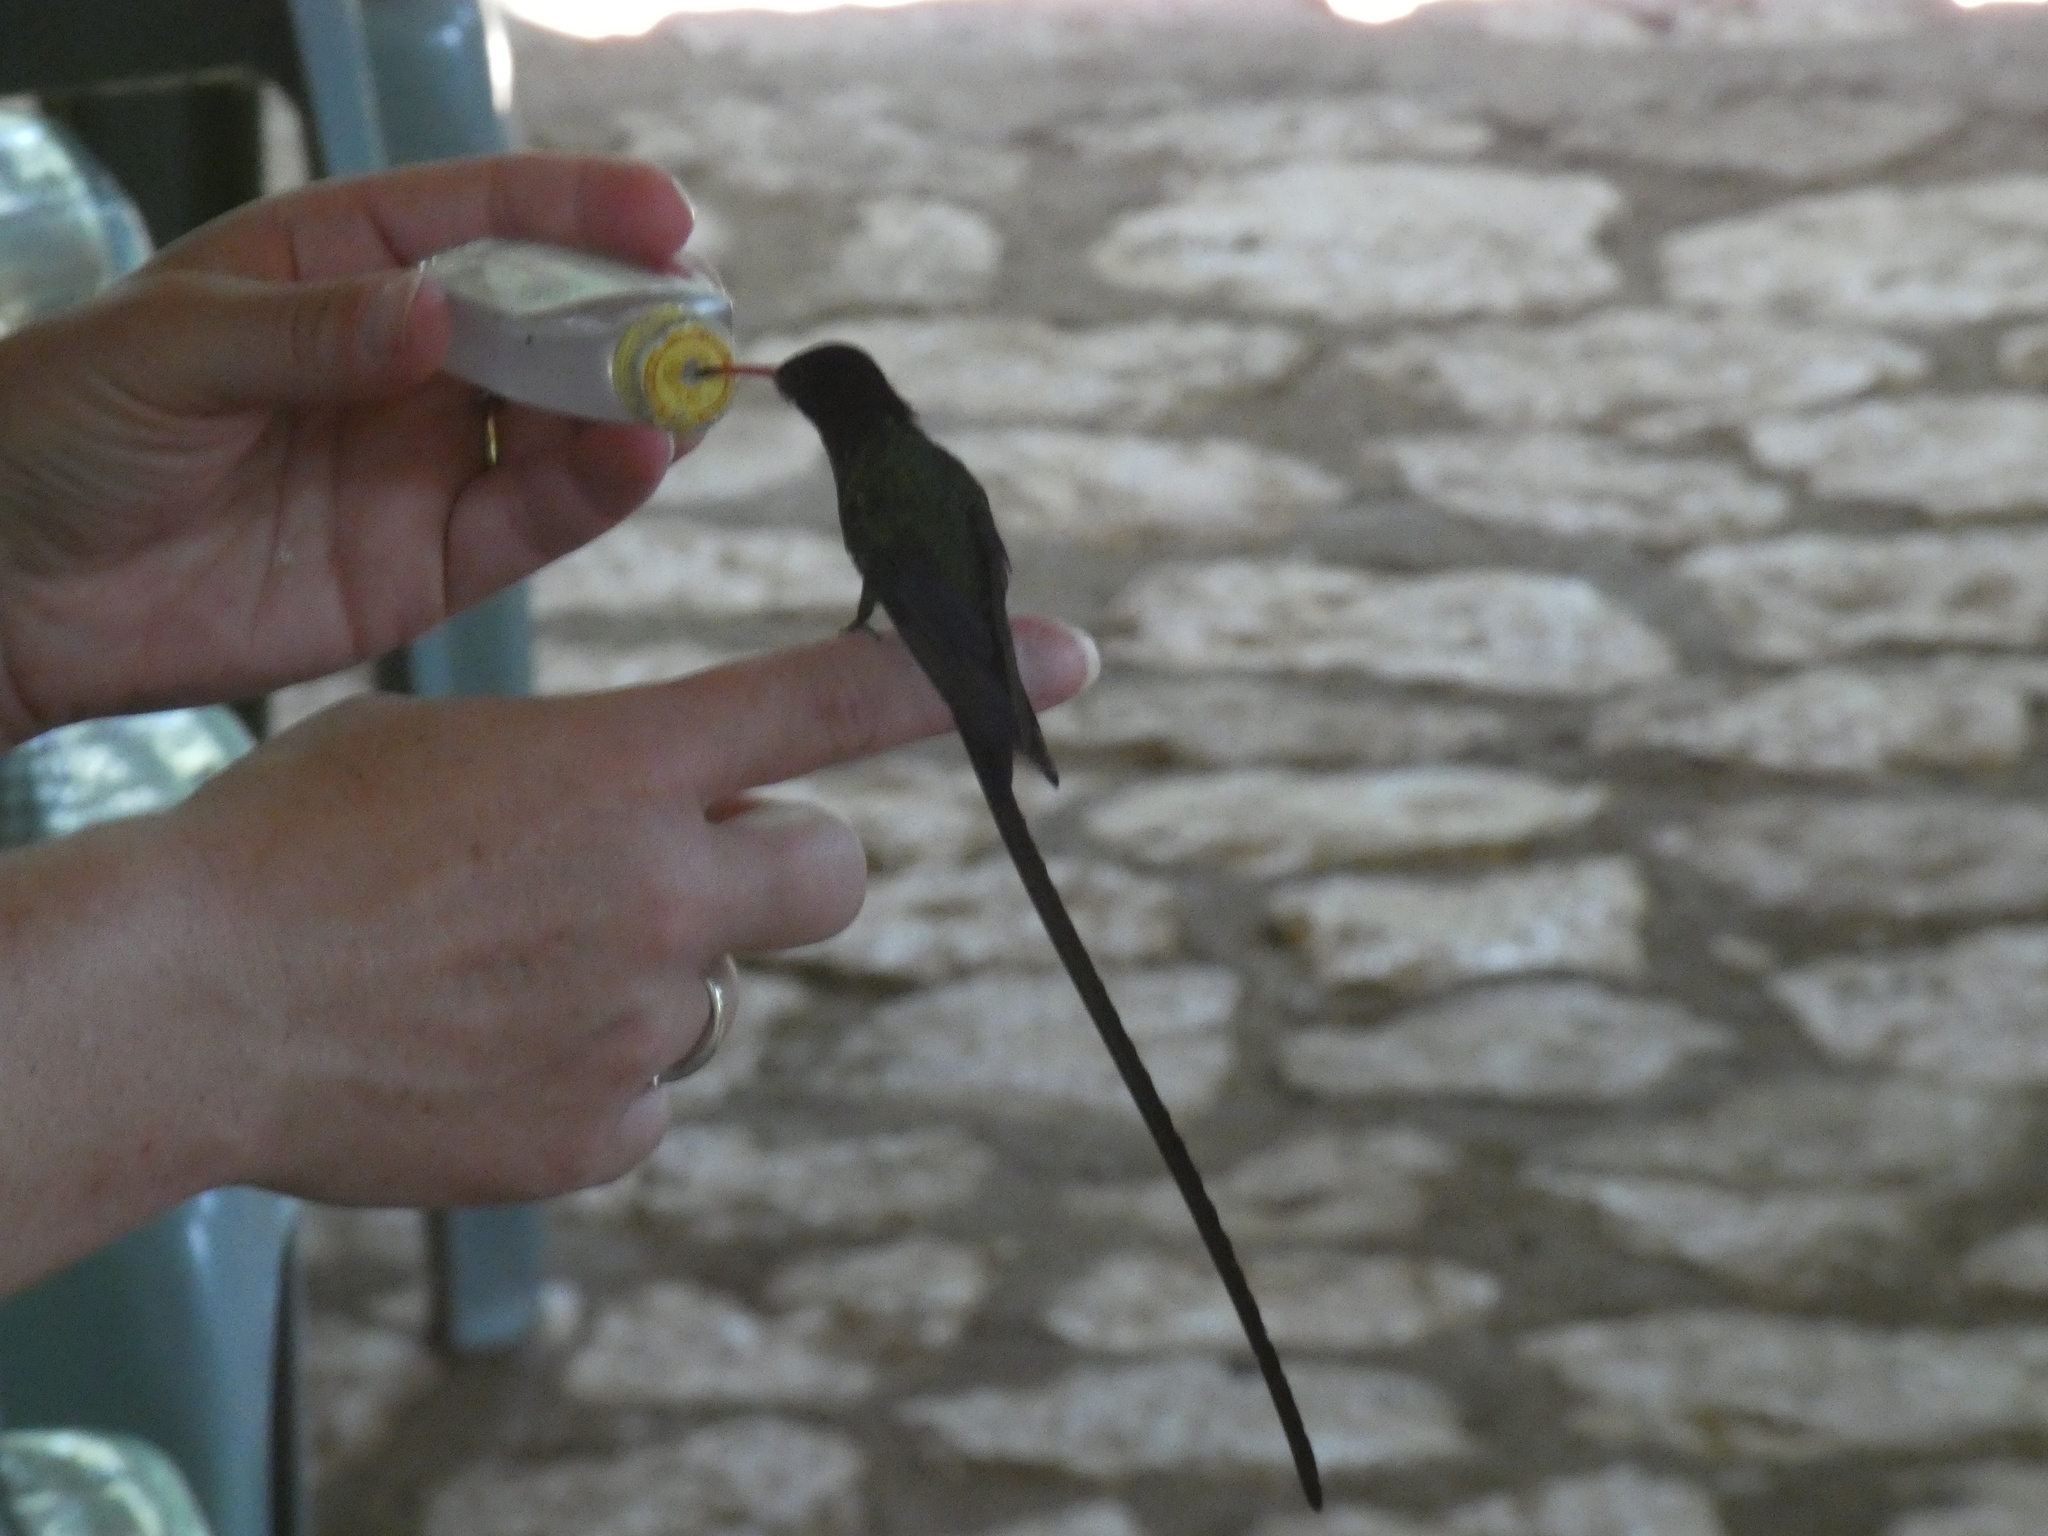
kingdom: Animalia
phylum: Chordata
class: Aves
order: Apodiformes
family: Trochilidae
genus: Trochilus
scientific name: Trochilus polytmus
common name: Red-billed streamertail
